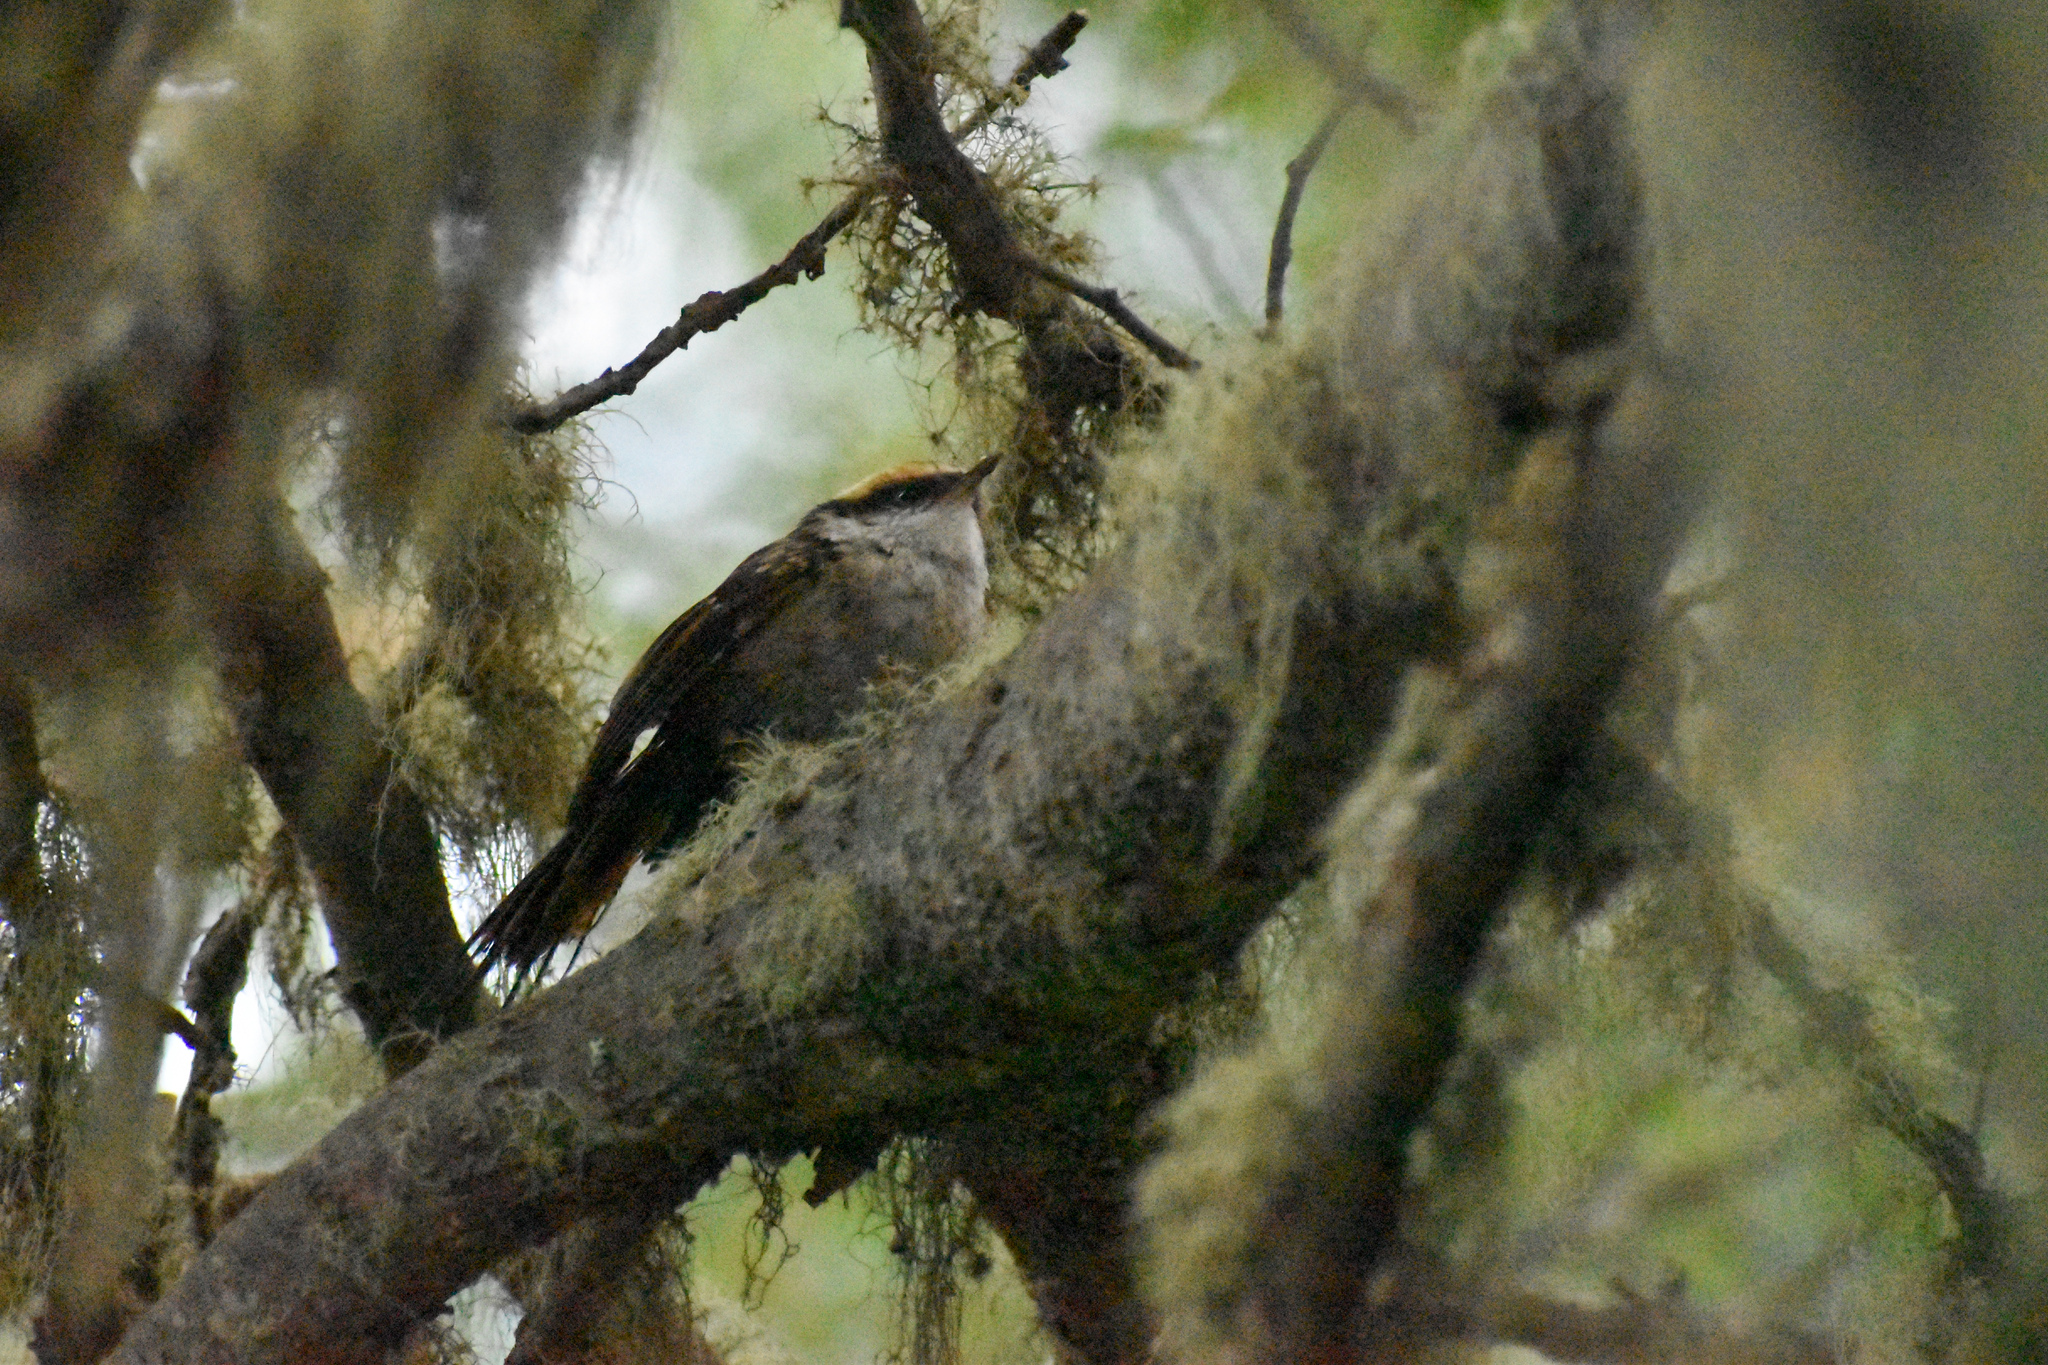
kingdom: Animalia
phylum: Chordata
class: Aves
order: Passeriformes
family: Furnariidae
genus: Aphrastura
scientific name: Aphrastura spinicauda
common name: Thorn-tailed rayadito
